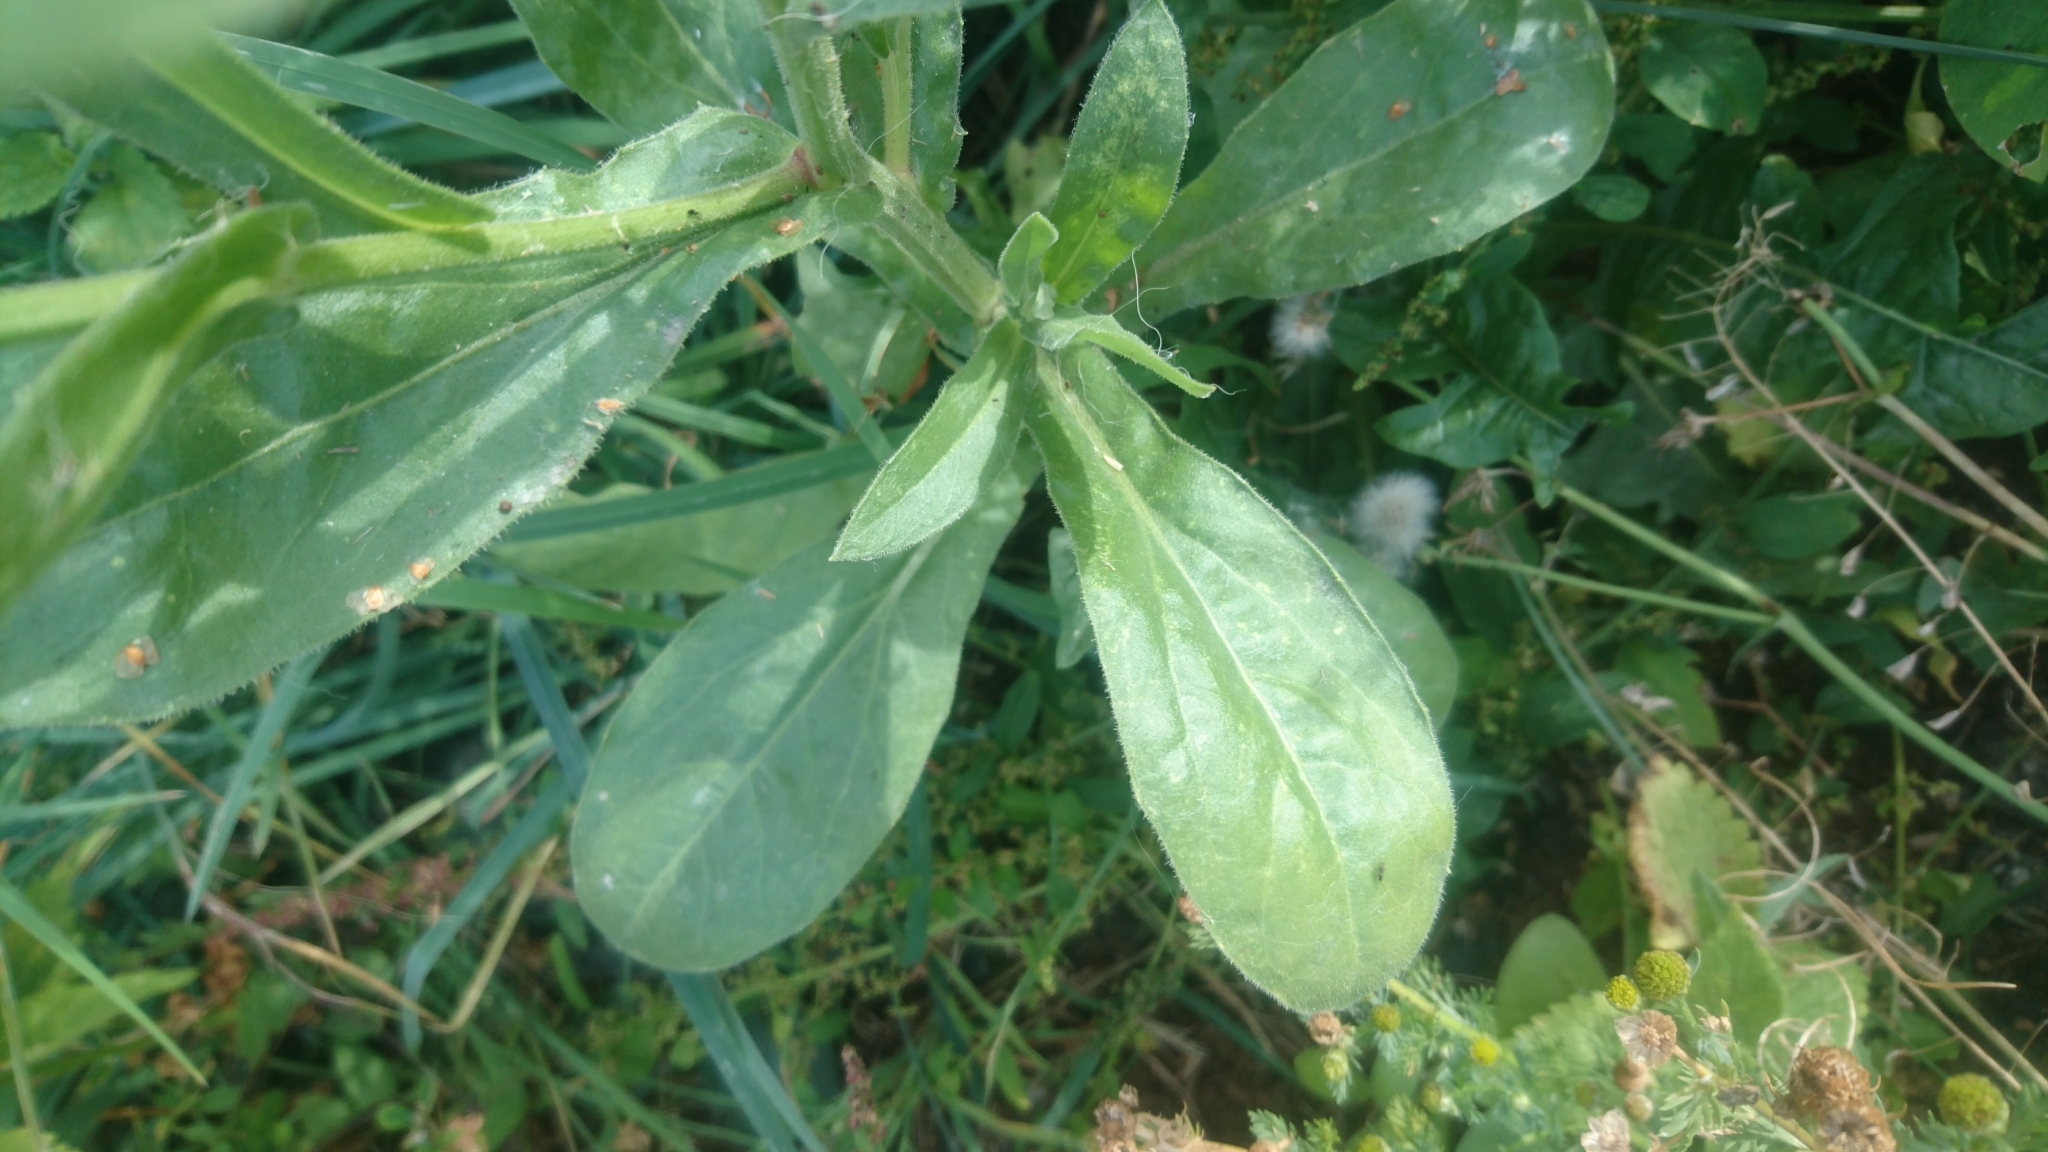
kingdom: Plantae
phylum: Tracheophyta
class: Magnoliopsida
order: Asterales
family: Asteraceae
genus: Calendula
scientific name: Calendula officinalis
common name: Pot marigold
